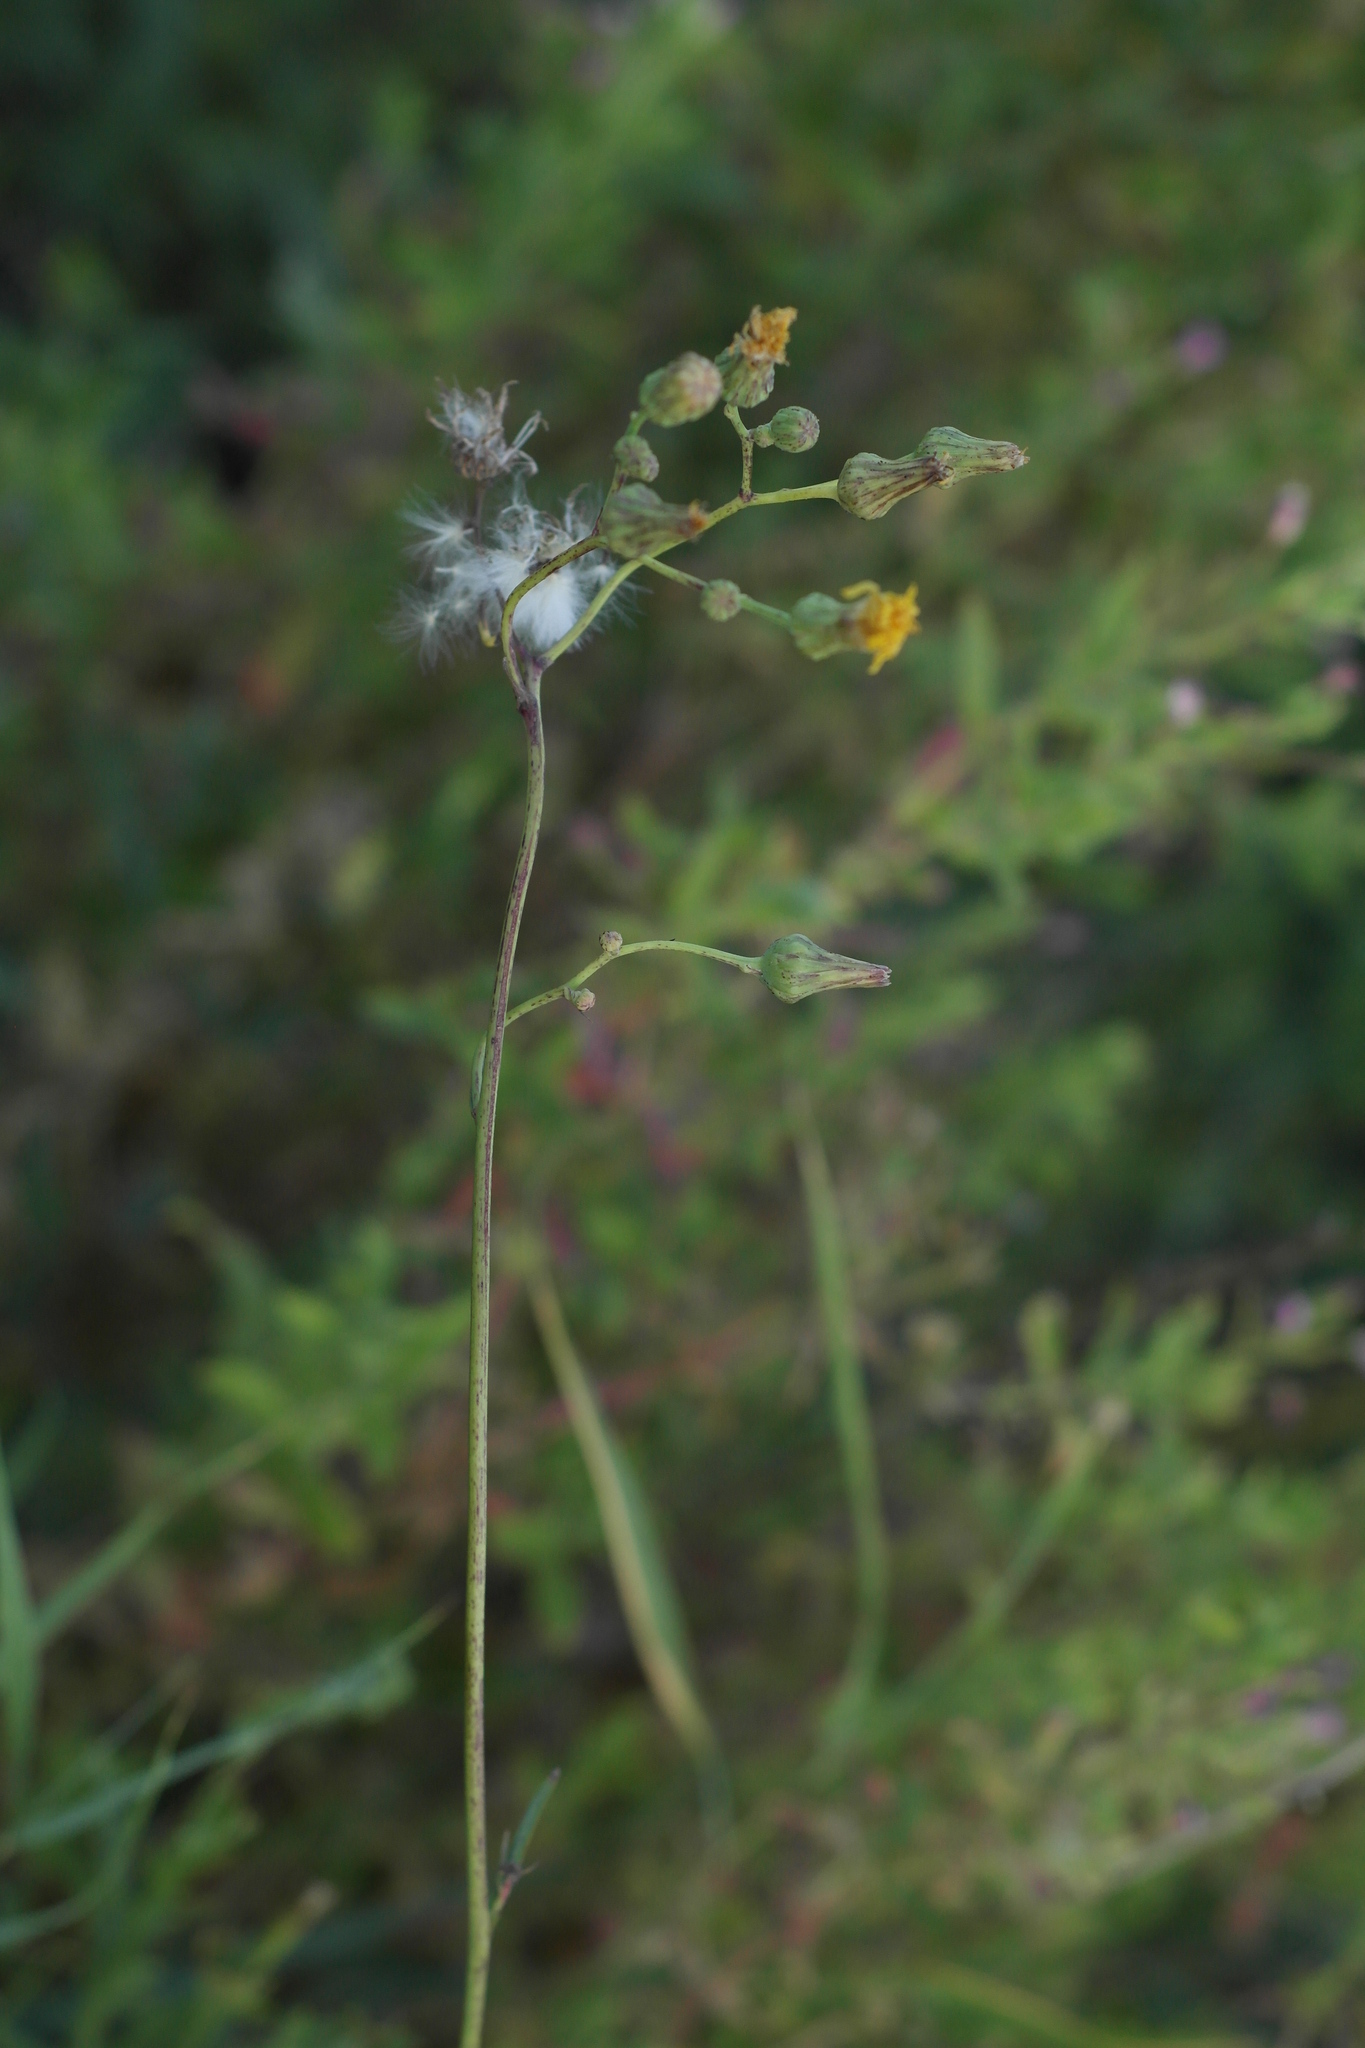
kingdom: Plantae
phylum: Tracheophyta
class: Magnoliopsida
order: Asterales
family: Asteraceae
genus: Sonchus
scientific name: Sonchus arvensis
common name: Perennial sow-thistle
